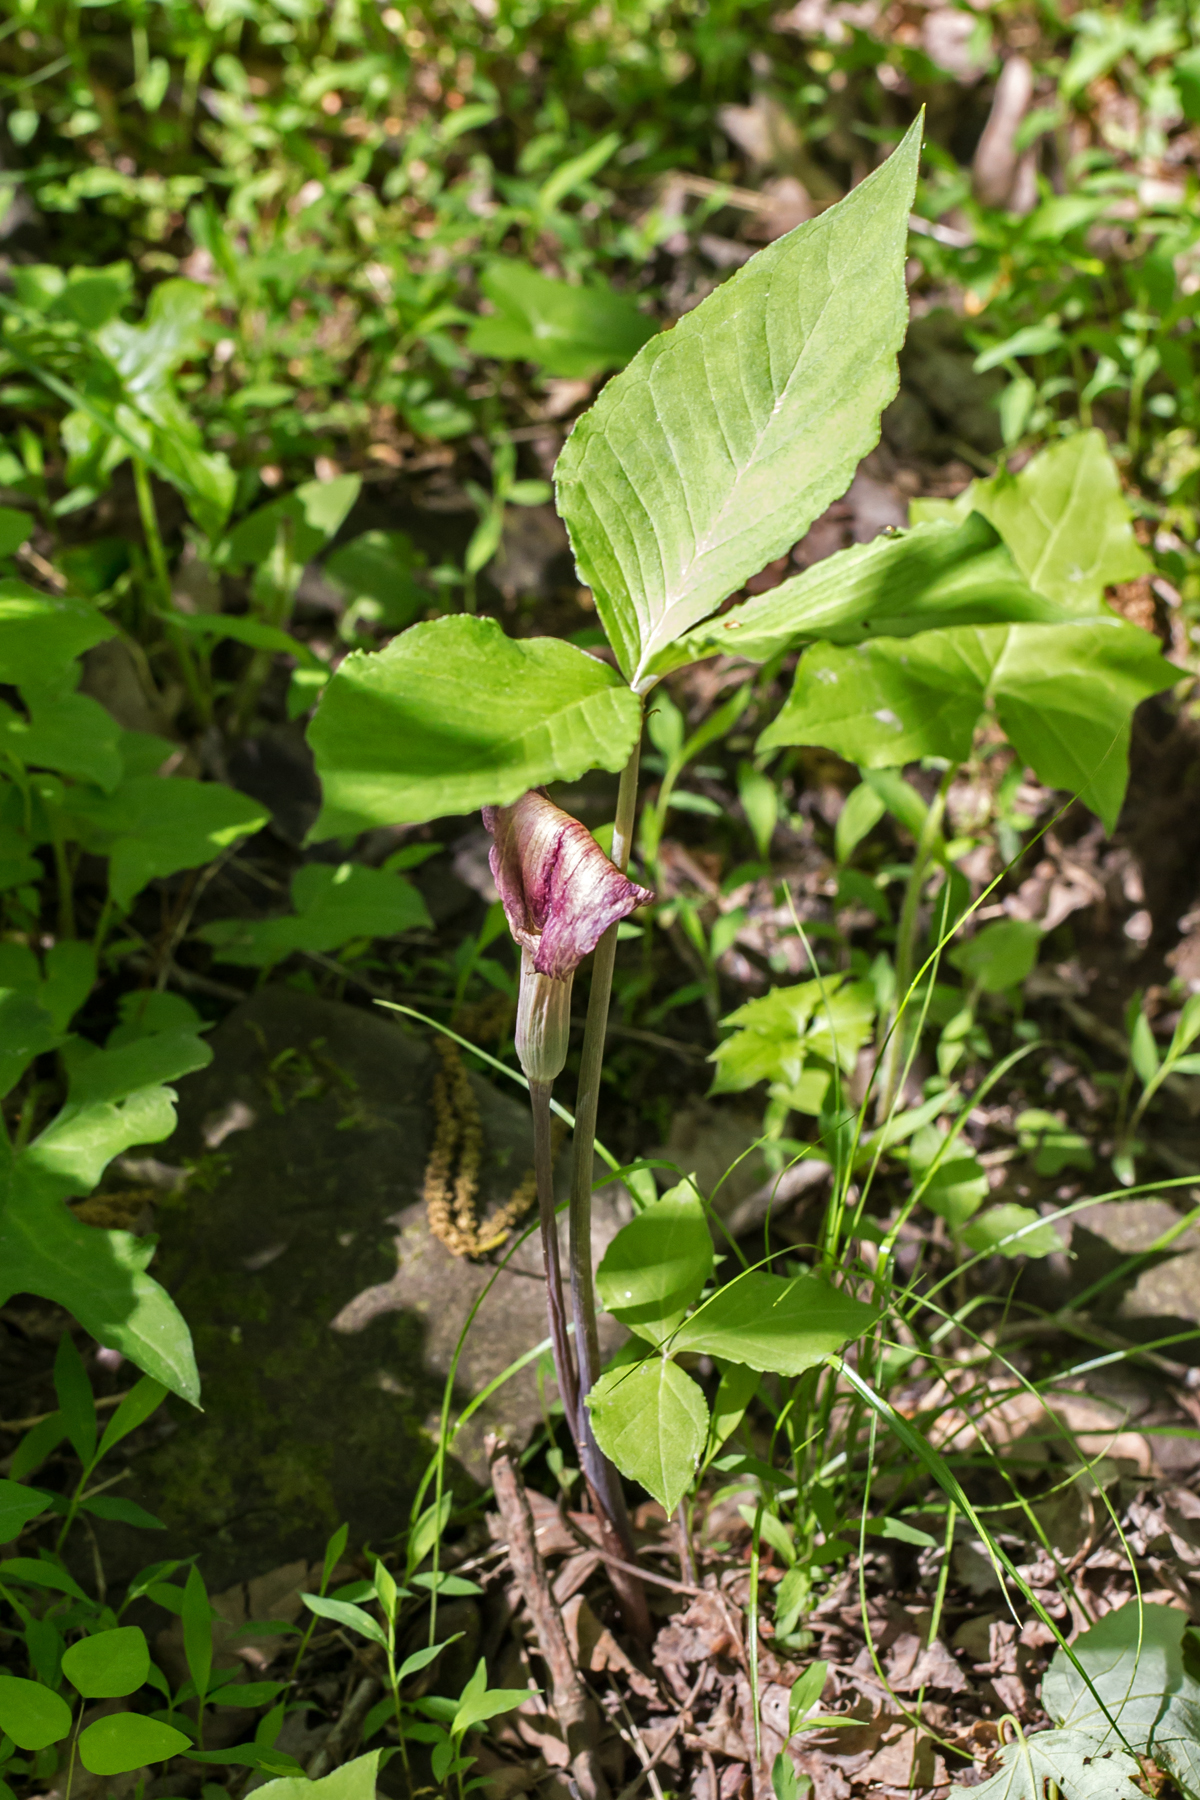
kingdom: Plantae
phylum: Tracheophyta
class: Liliopsida
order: Alismatales
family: Araceae
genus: Arisaema
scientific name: Arisaema triphyllum
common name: Jack-in-the-pulpit
